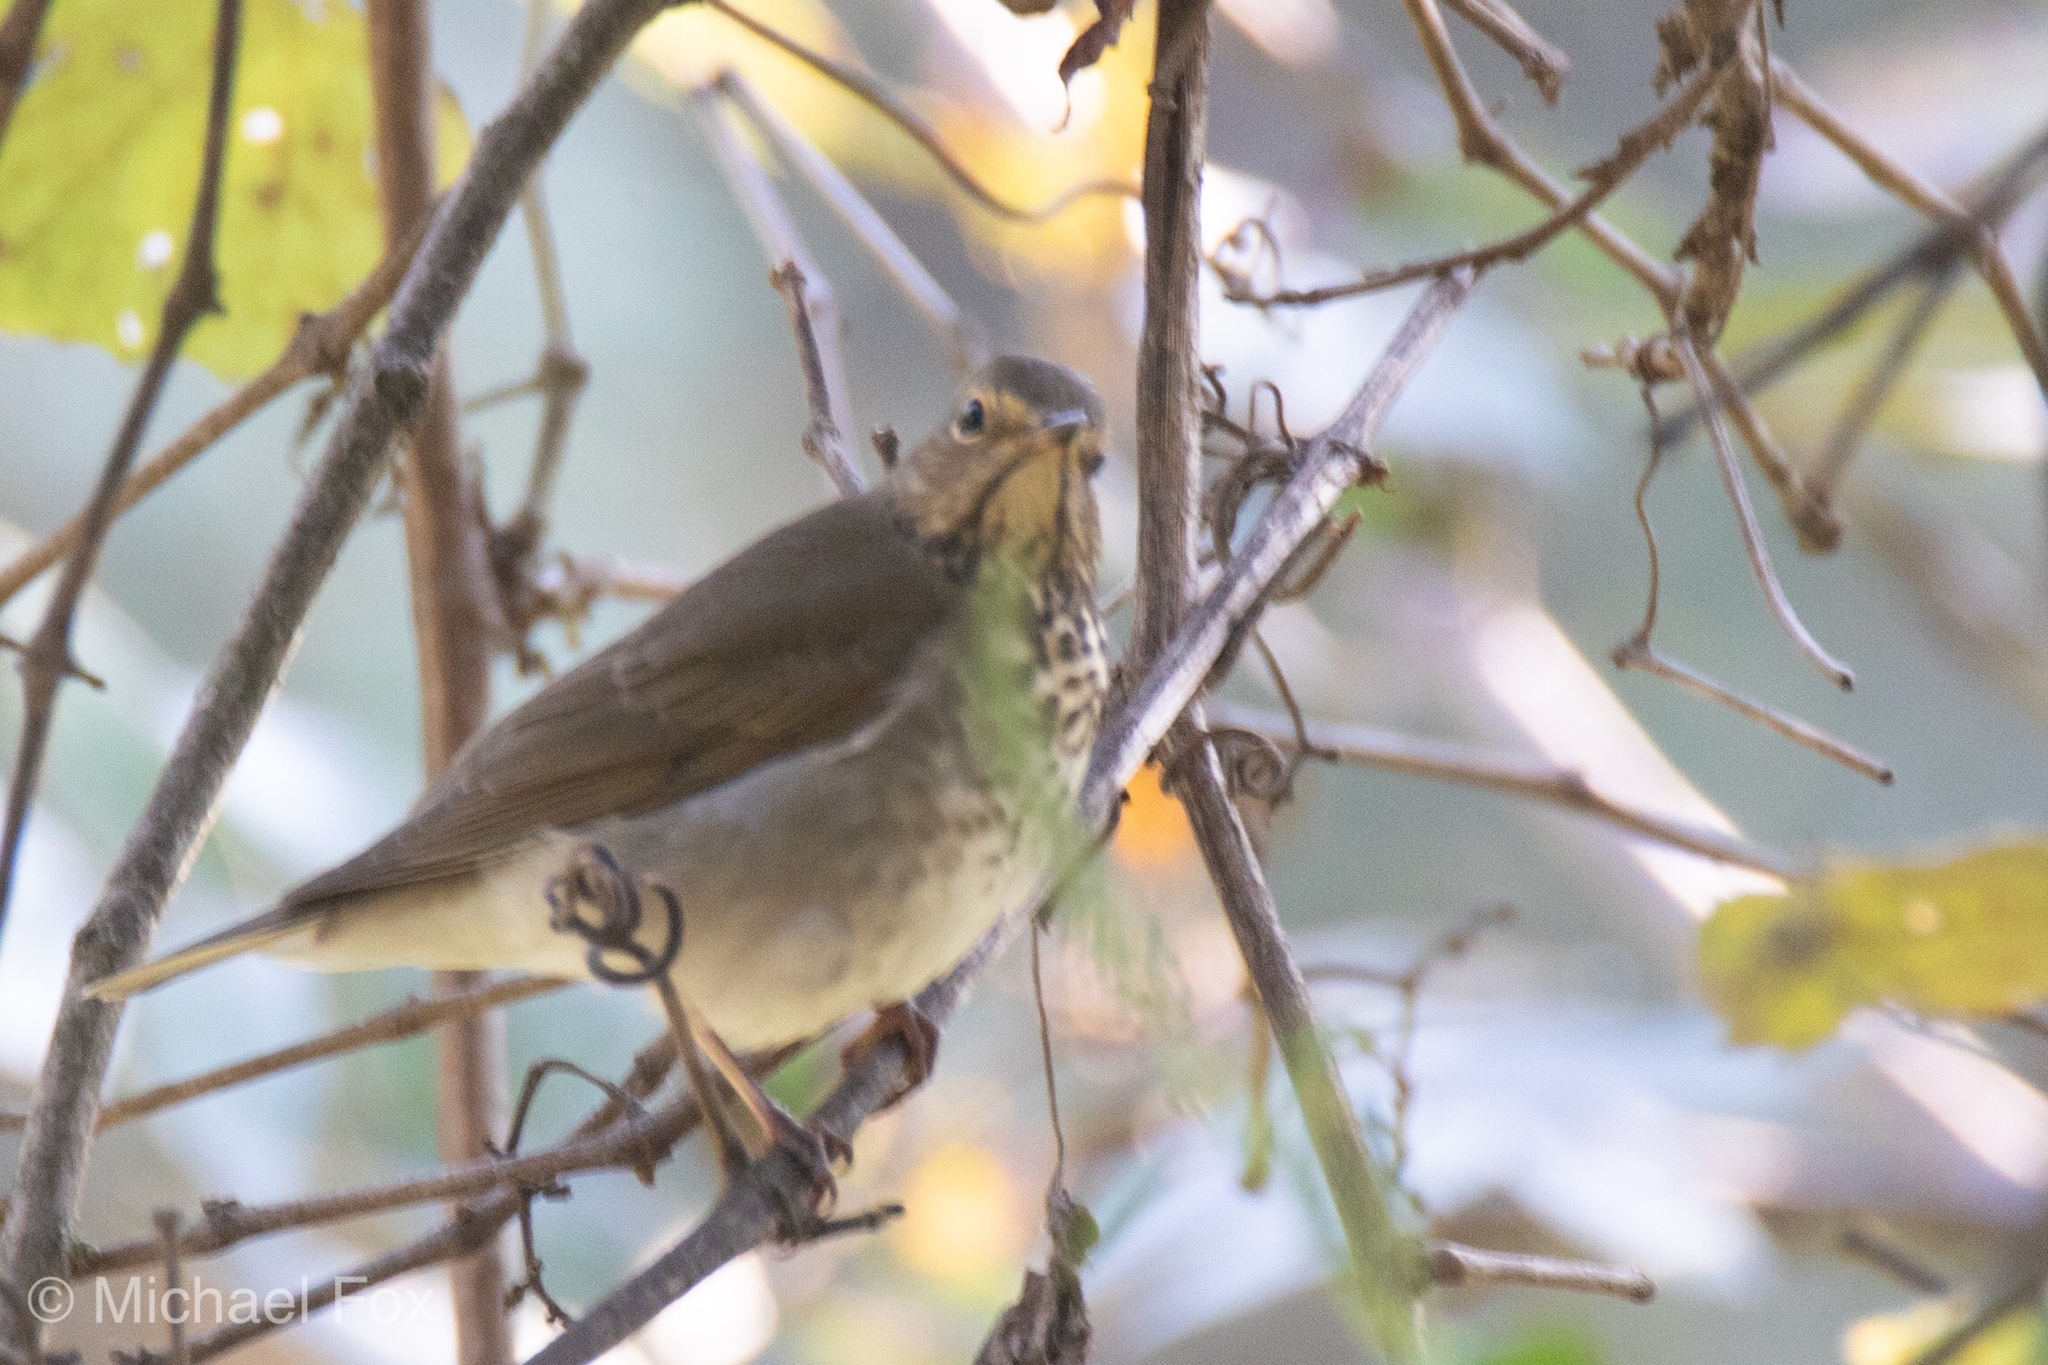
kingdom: Animalia
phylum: Chordata
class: Aves
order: Passeriformes
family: Turdidae
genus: Catharus
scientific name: Catharus ustulatus
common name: Swainson's thrush
